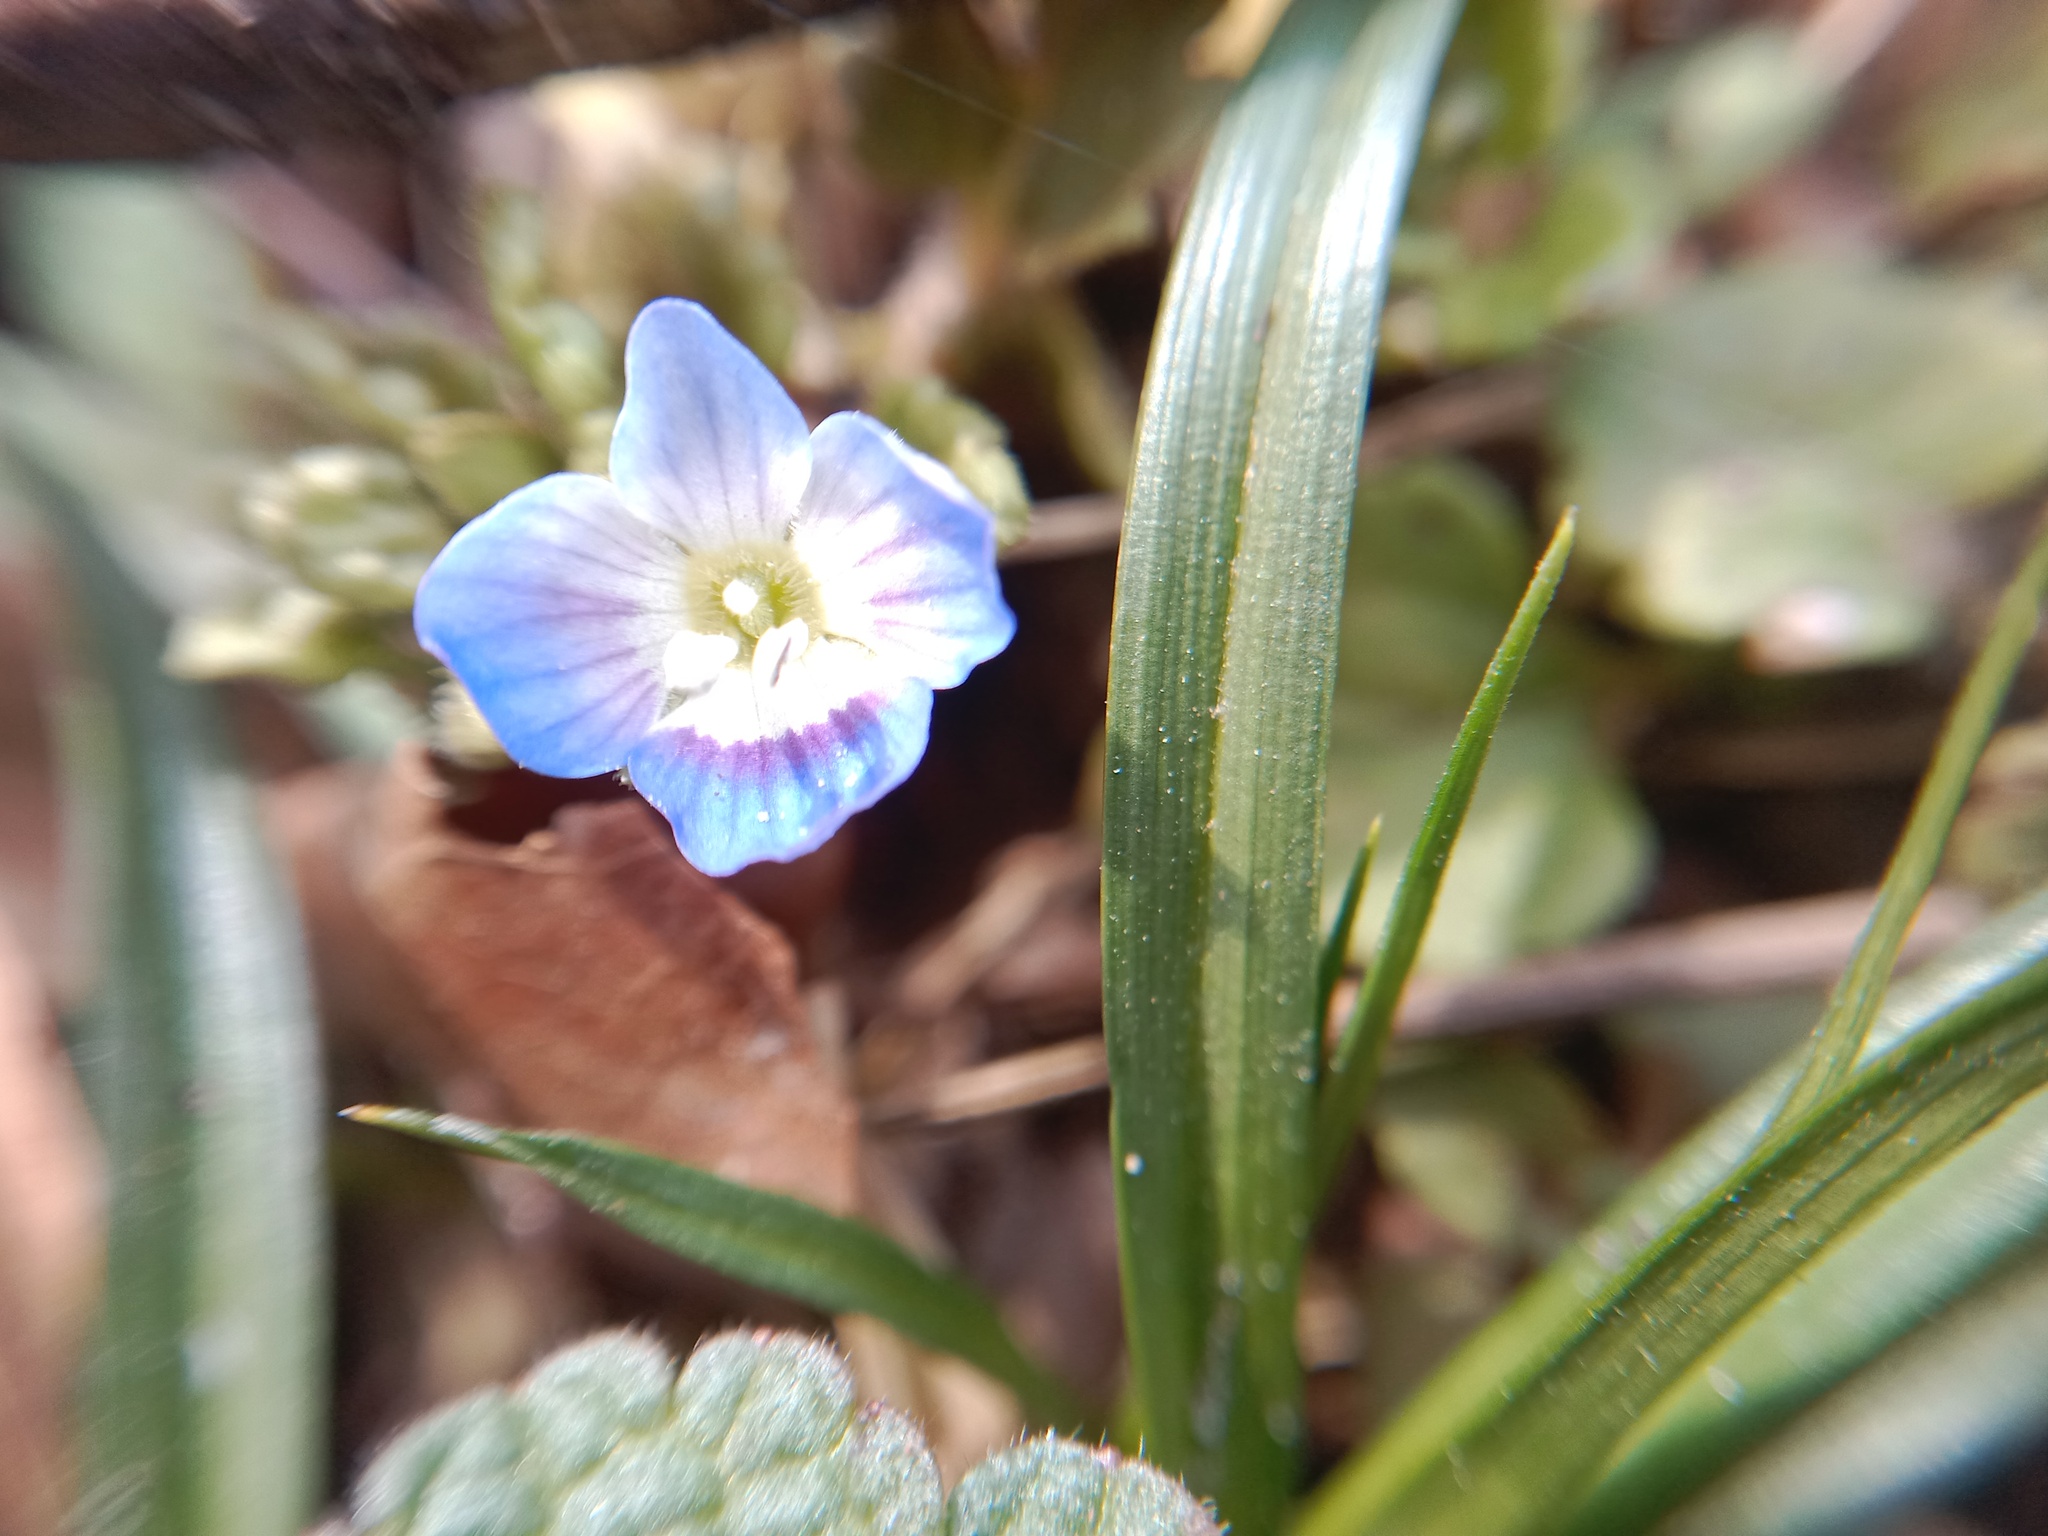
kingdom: Plantae
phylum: Tracheophyta
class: Magnoliopsida
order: Lamiales
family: Plantaginaceae
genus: Veronica
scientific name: Veronica polita
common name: Grey field-speedwell
